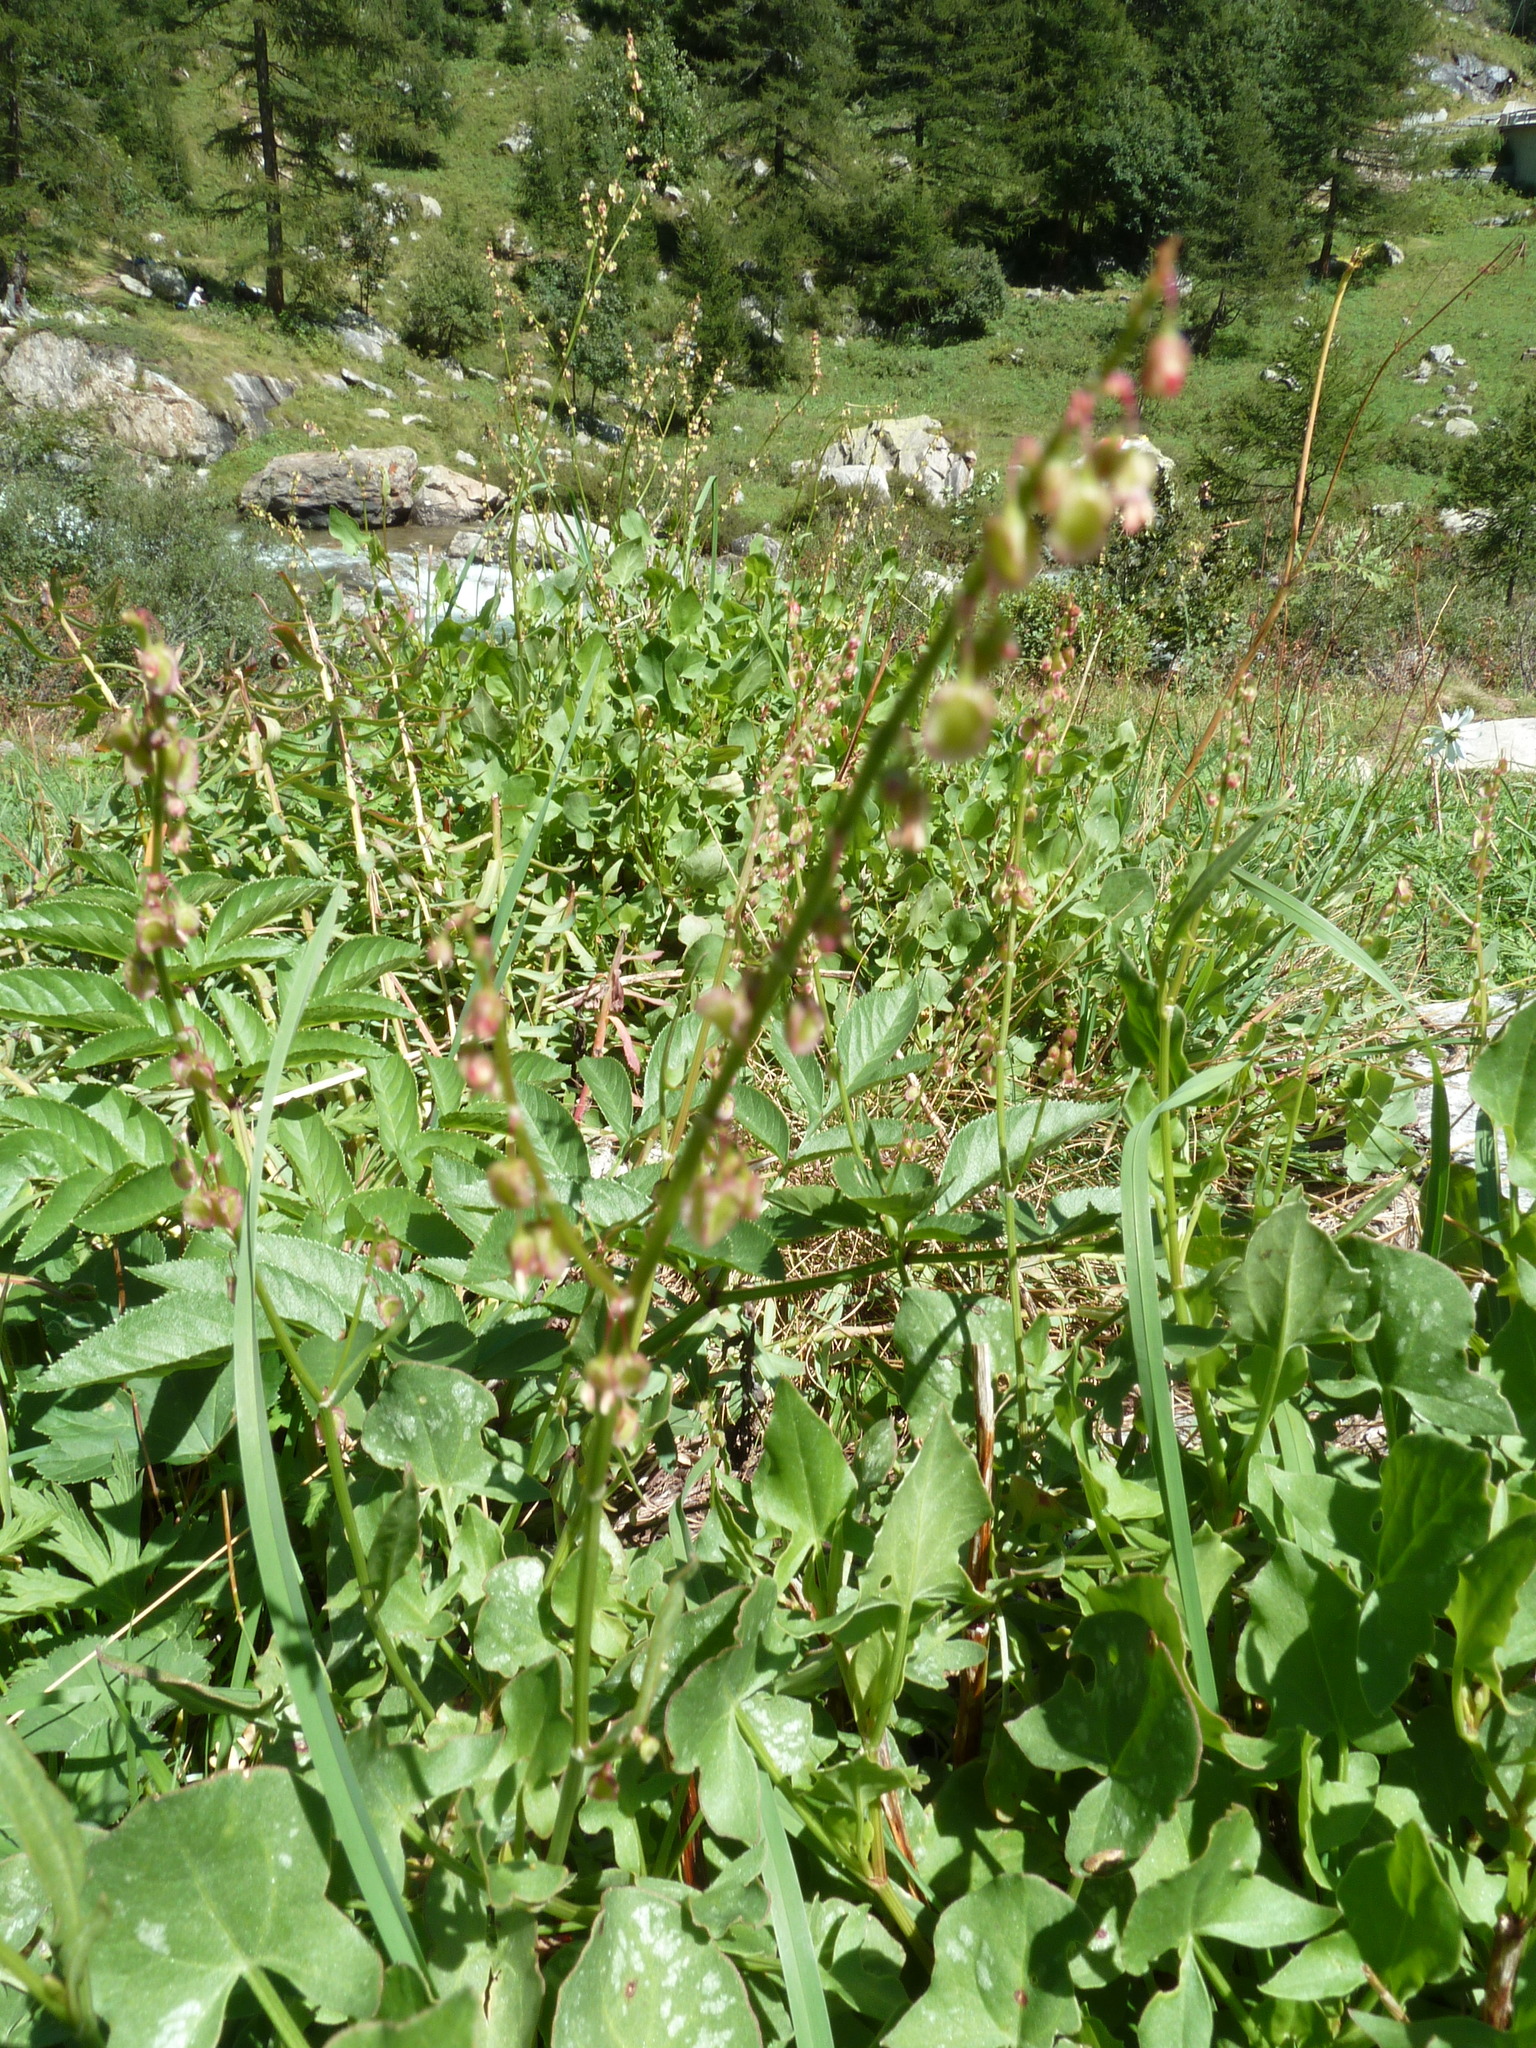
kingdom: Plantae
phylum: Tracheophyta
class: Magnoliopsida
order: Caryophyllales
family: Polygonaceae
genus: Rumex
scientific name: Rumex scutatus
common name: French sorrel
